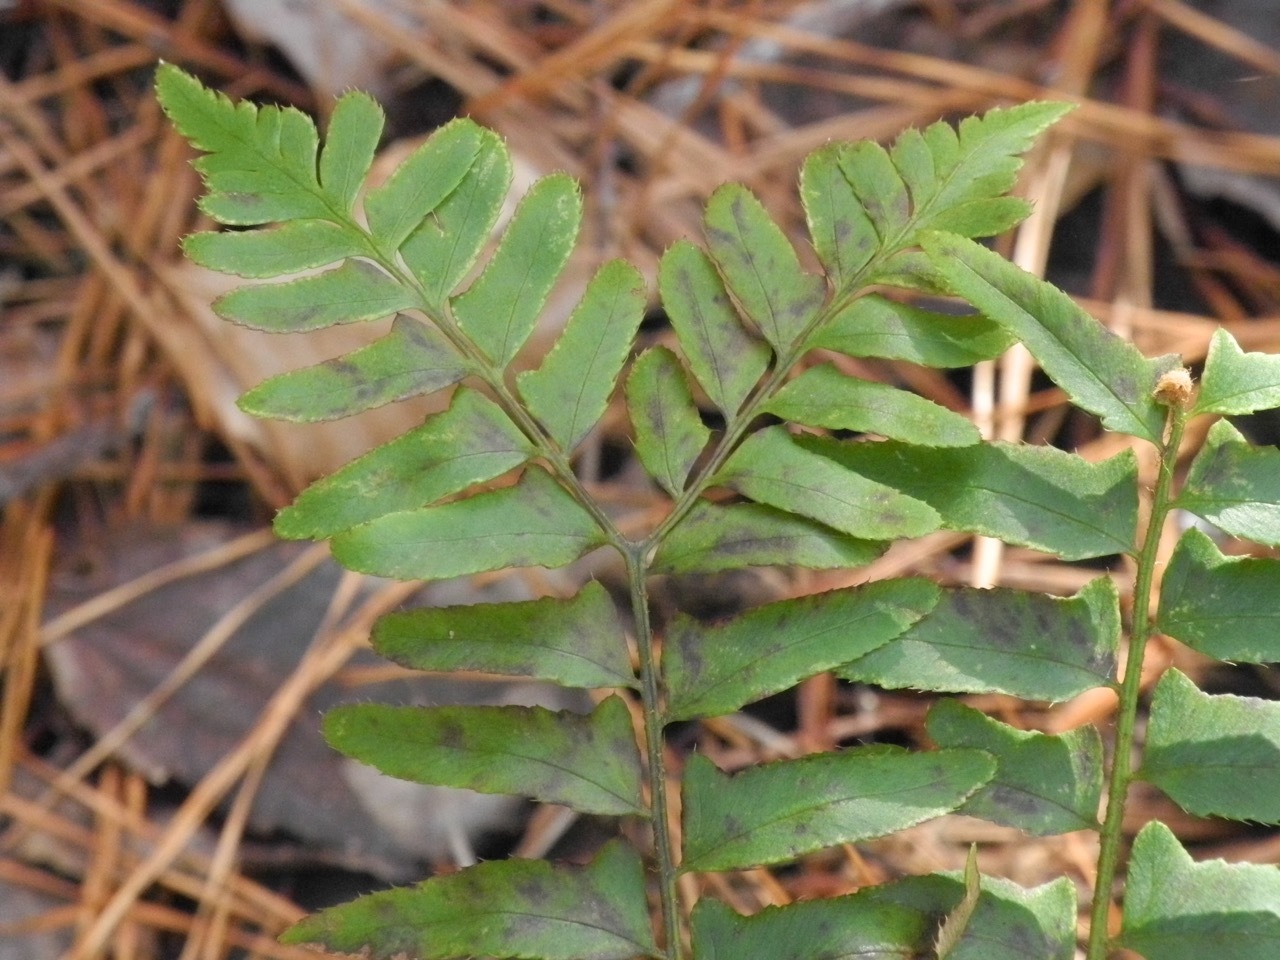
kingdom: Plantae
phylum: Tracheophyta
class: Polypodiopsida
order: Polypodiales
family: Dryopteridaceae
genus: Polystichum
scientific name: Polystichum acrostichoides
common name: Christmas fern
